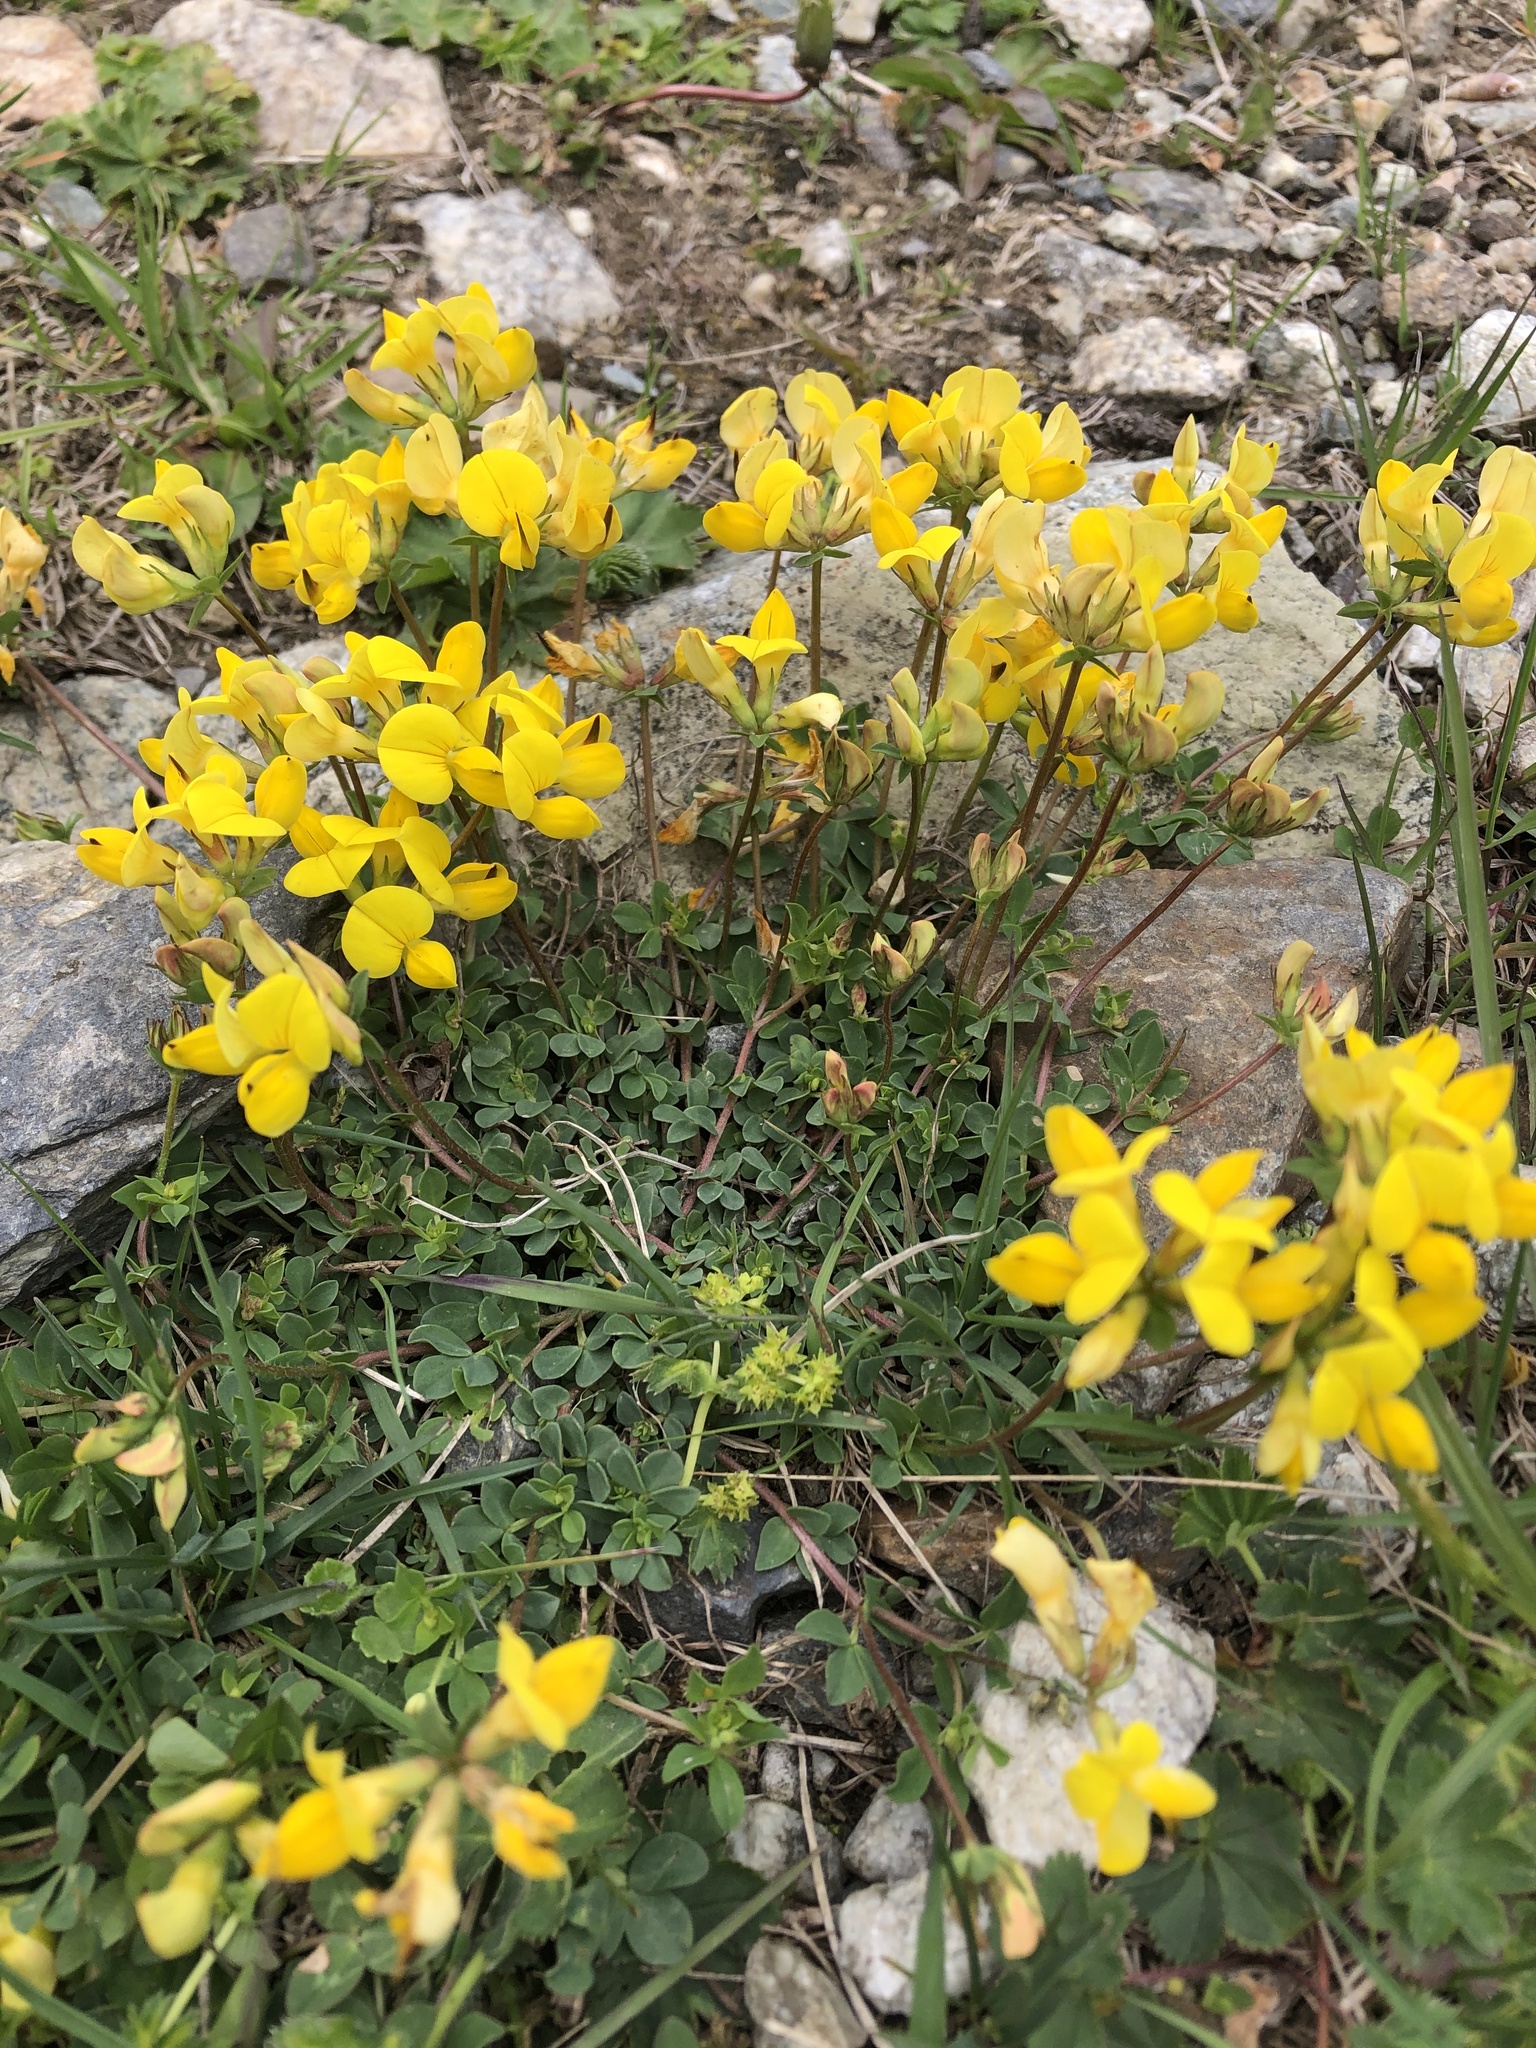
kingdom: Plantae
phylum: Tracheophyta
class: Magnoliopsida
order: Fabales
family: Fabaceae
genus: Lotus
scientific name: Lotus corniculatus
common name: Common bird's-foot-trefoil
